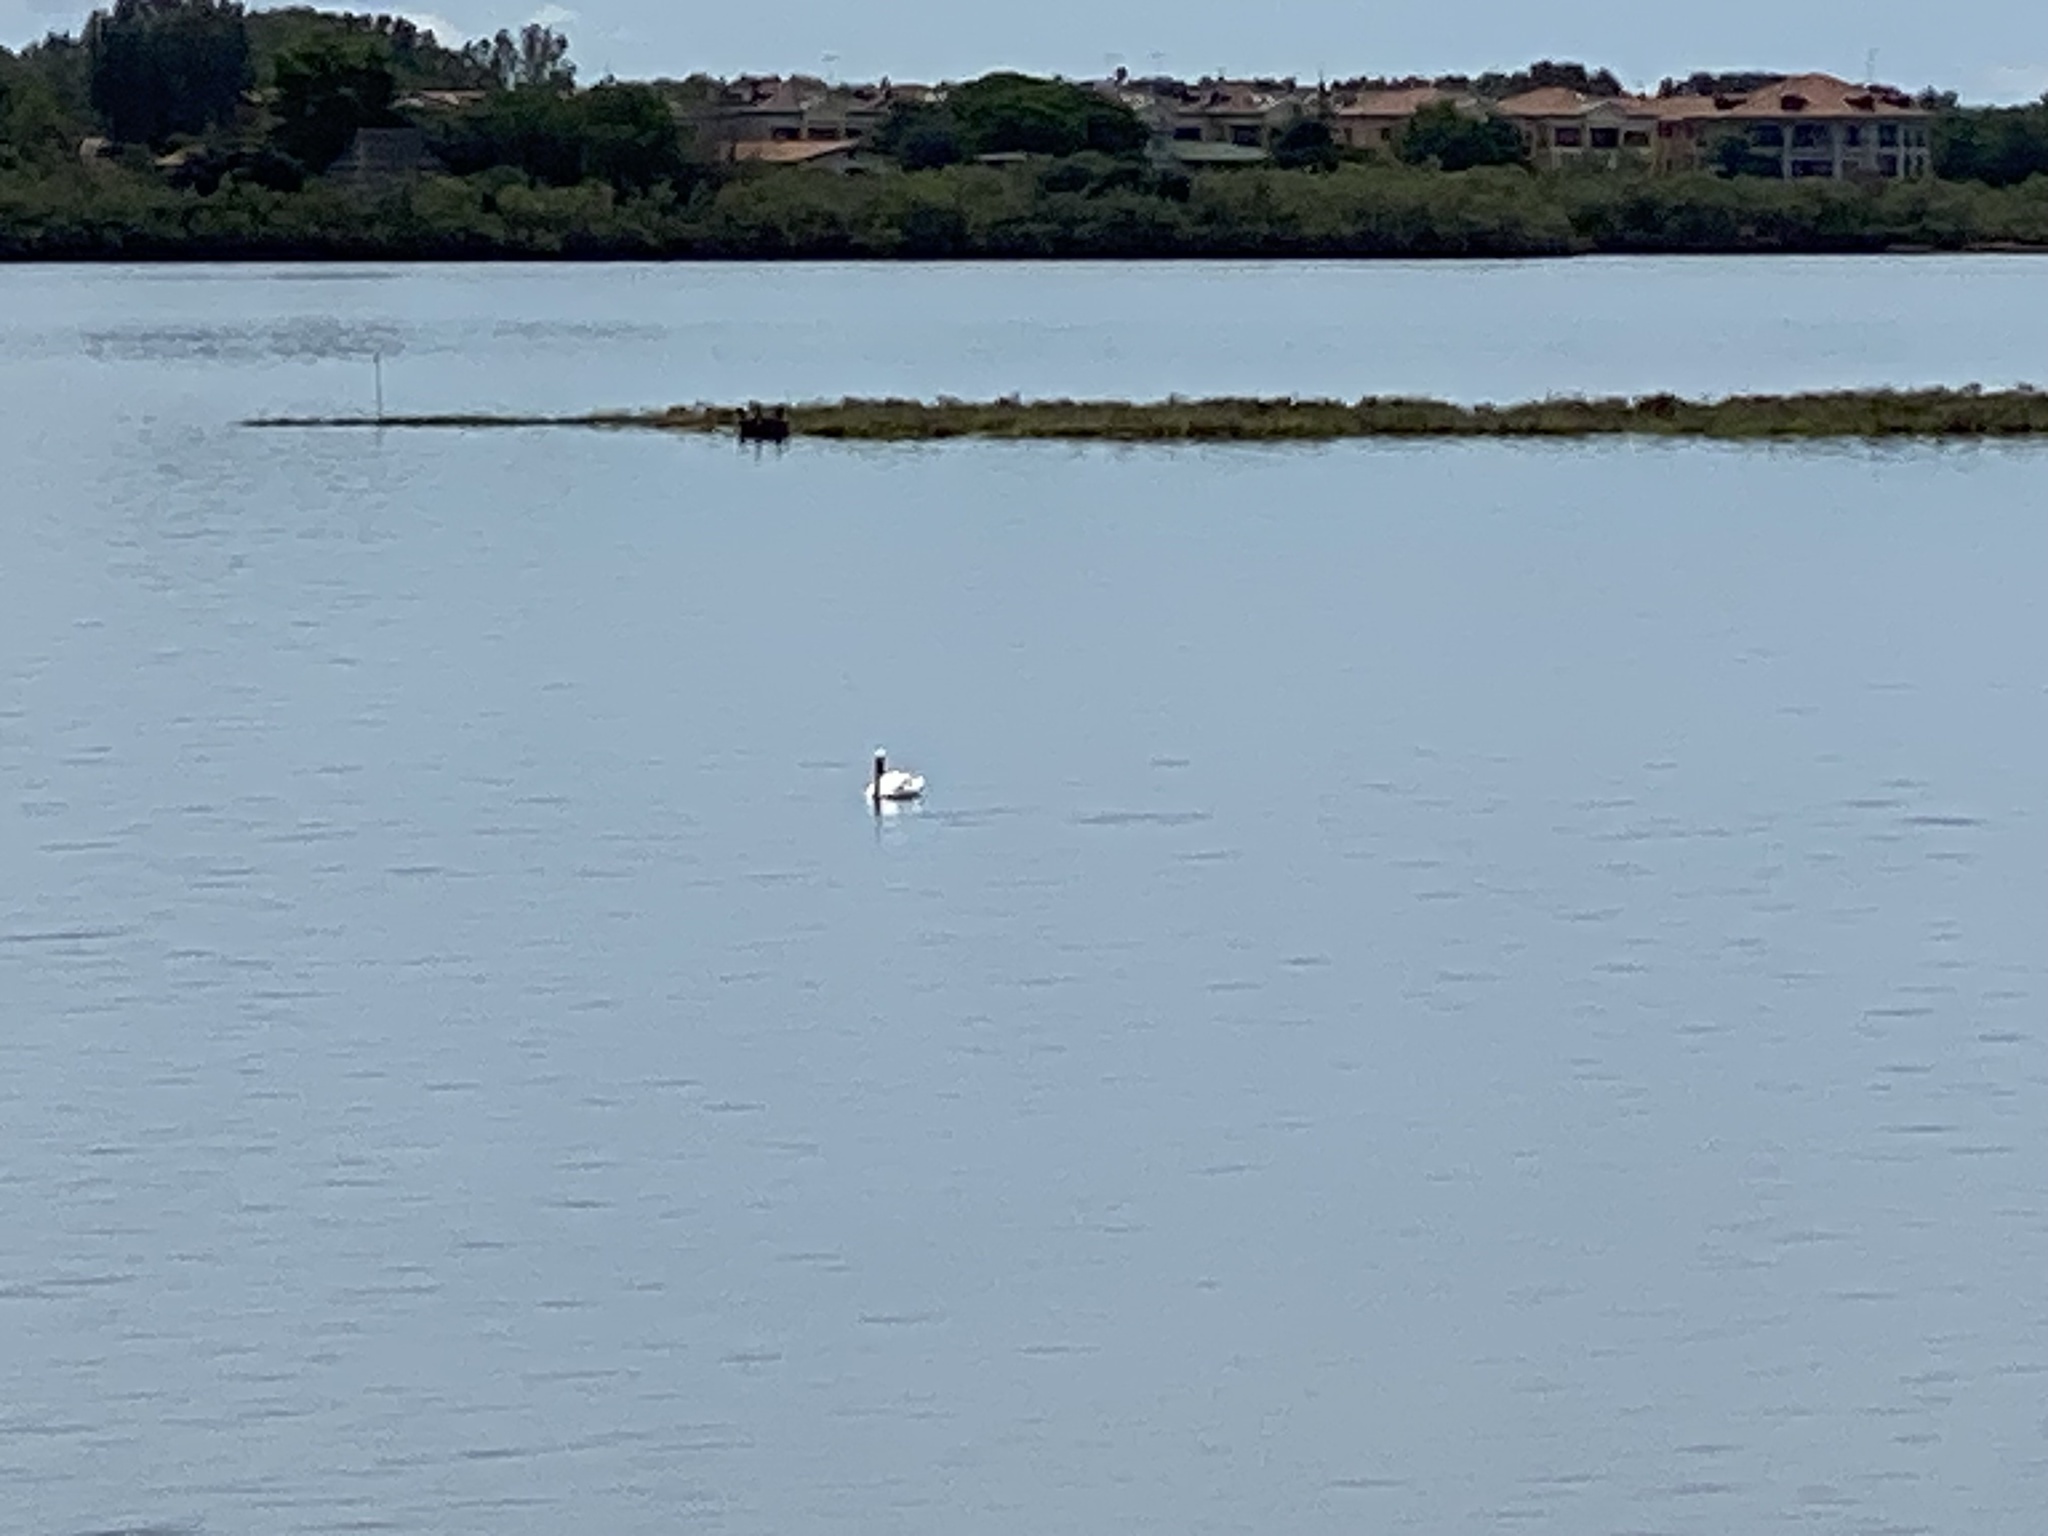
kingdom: Animalia
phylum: Chordata
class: Aves
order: Anseriformes
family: Anatidae
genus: Cygnus
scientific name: Cygnus olor
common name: Mute swan
